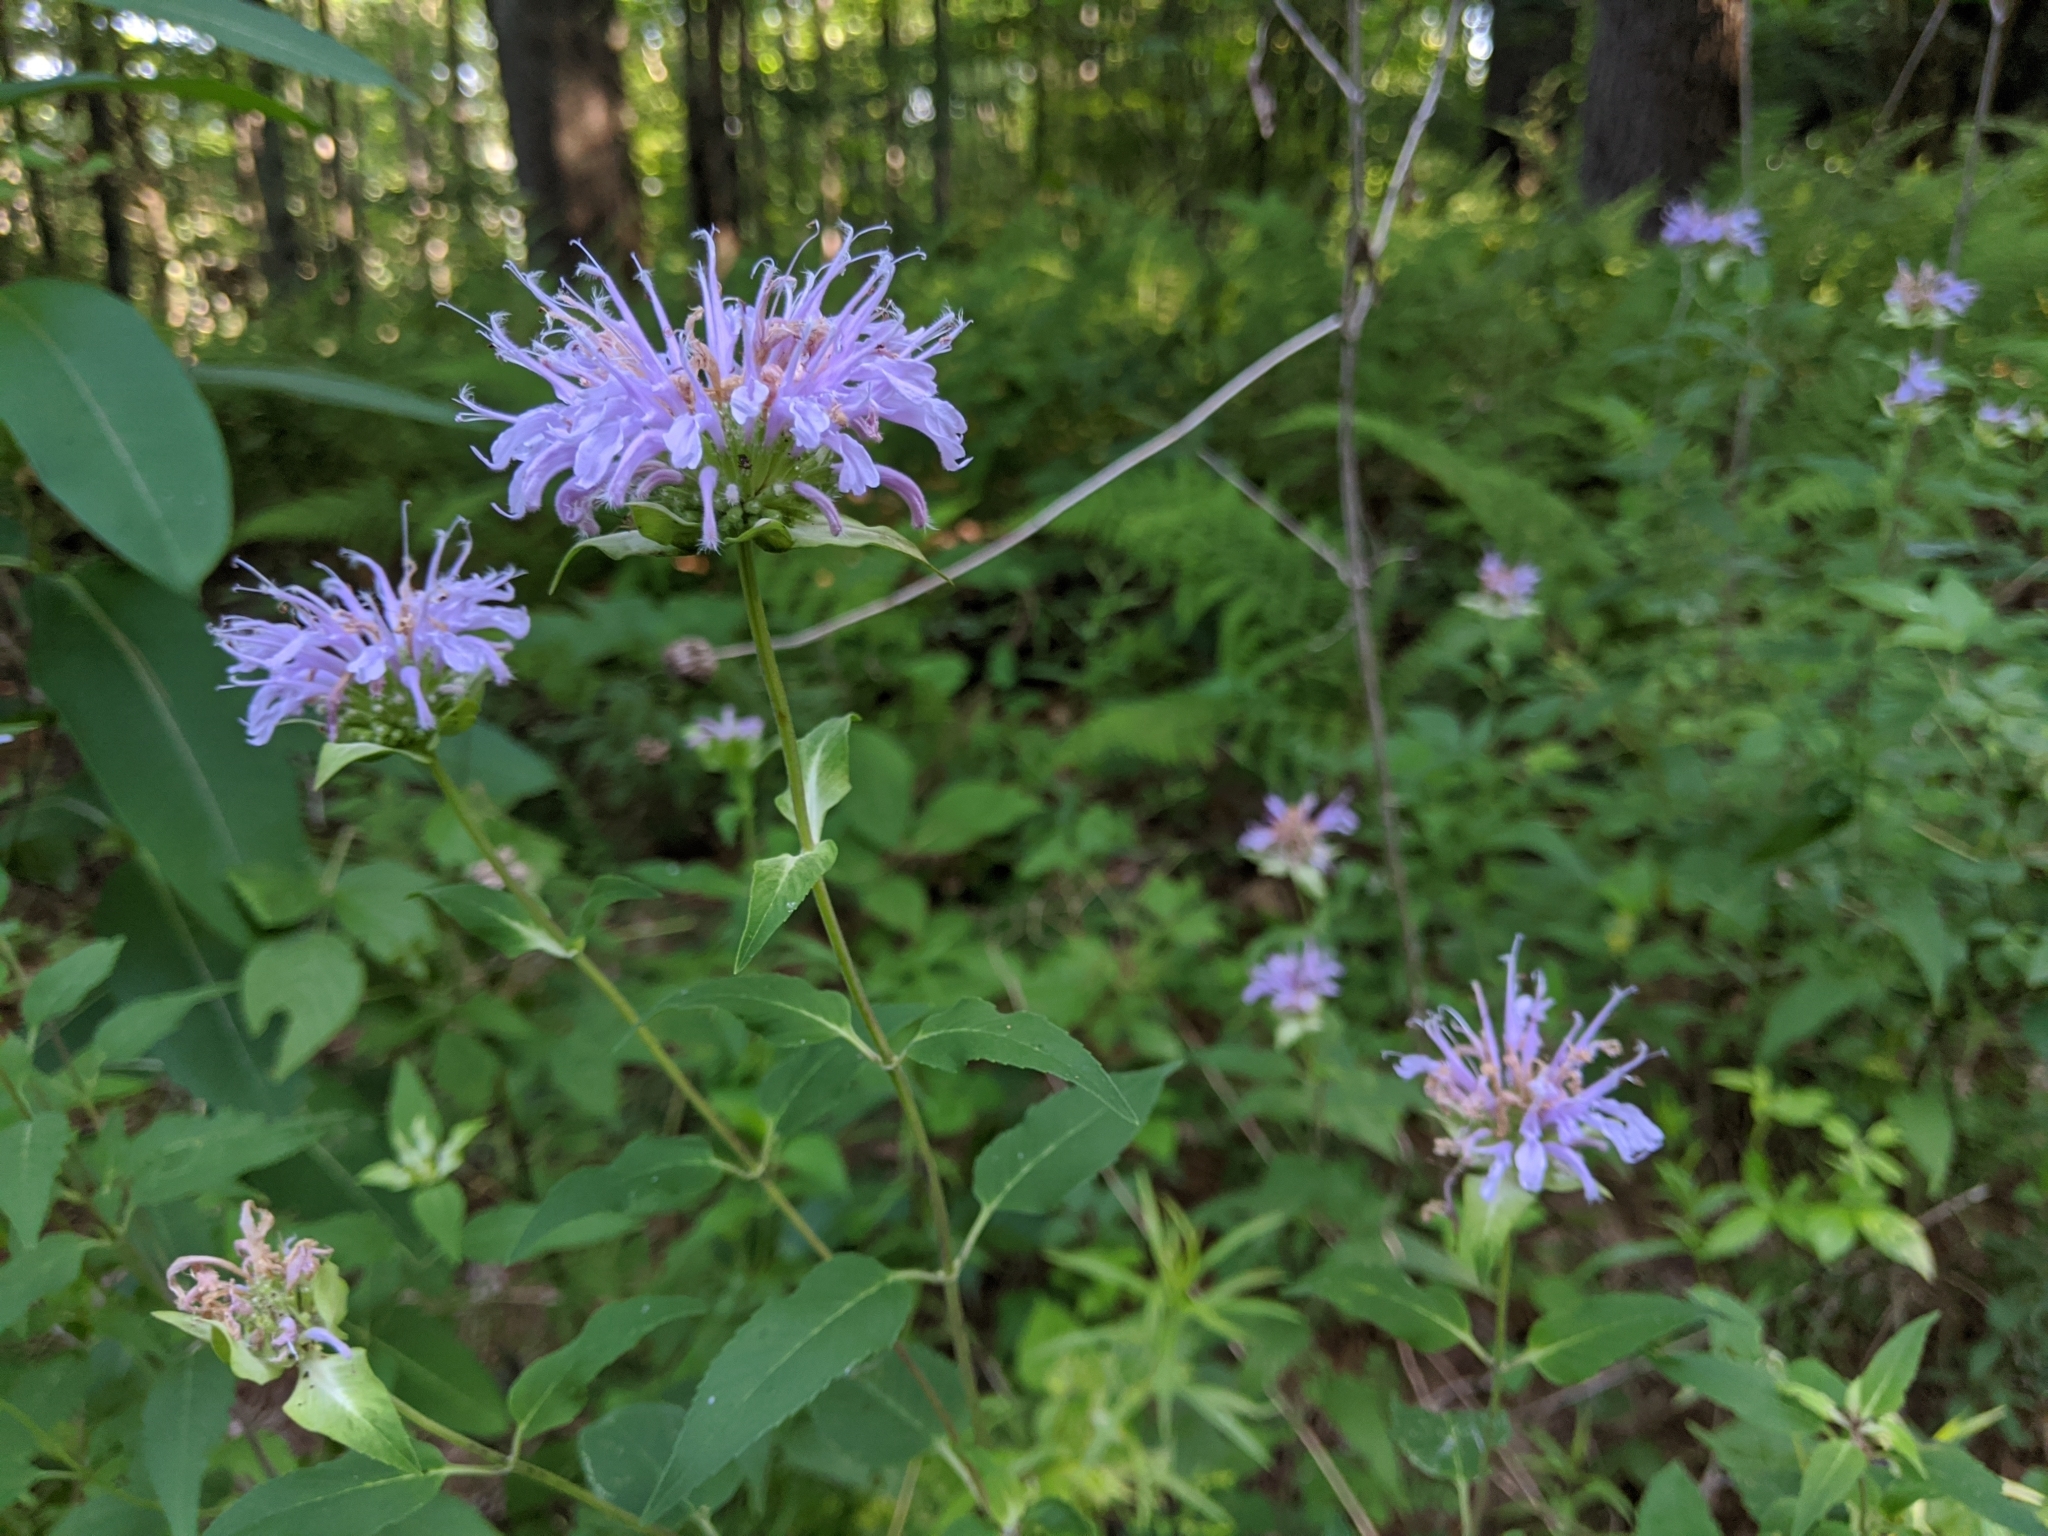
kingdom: Plantae
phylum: Tracheophyta
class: Magnoliopsida
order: Lamiales
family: Lamiaceae
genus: Monarda
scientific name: Monarda fistulosa
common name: Purple beebalm
